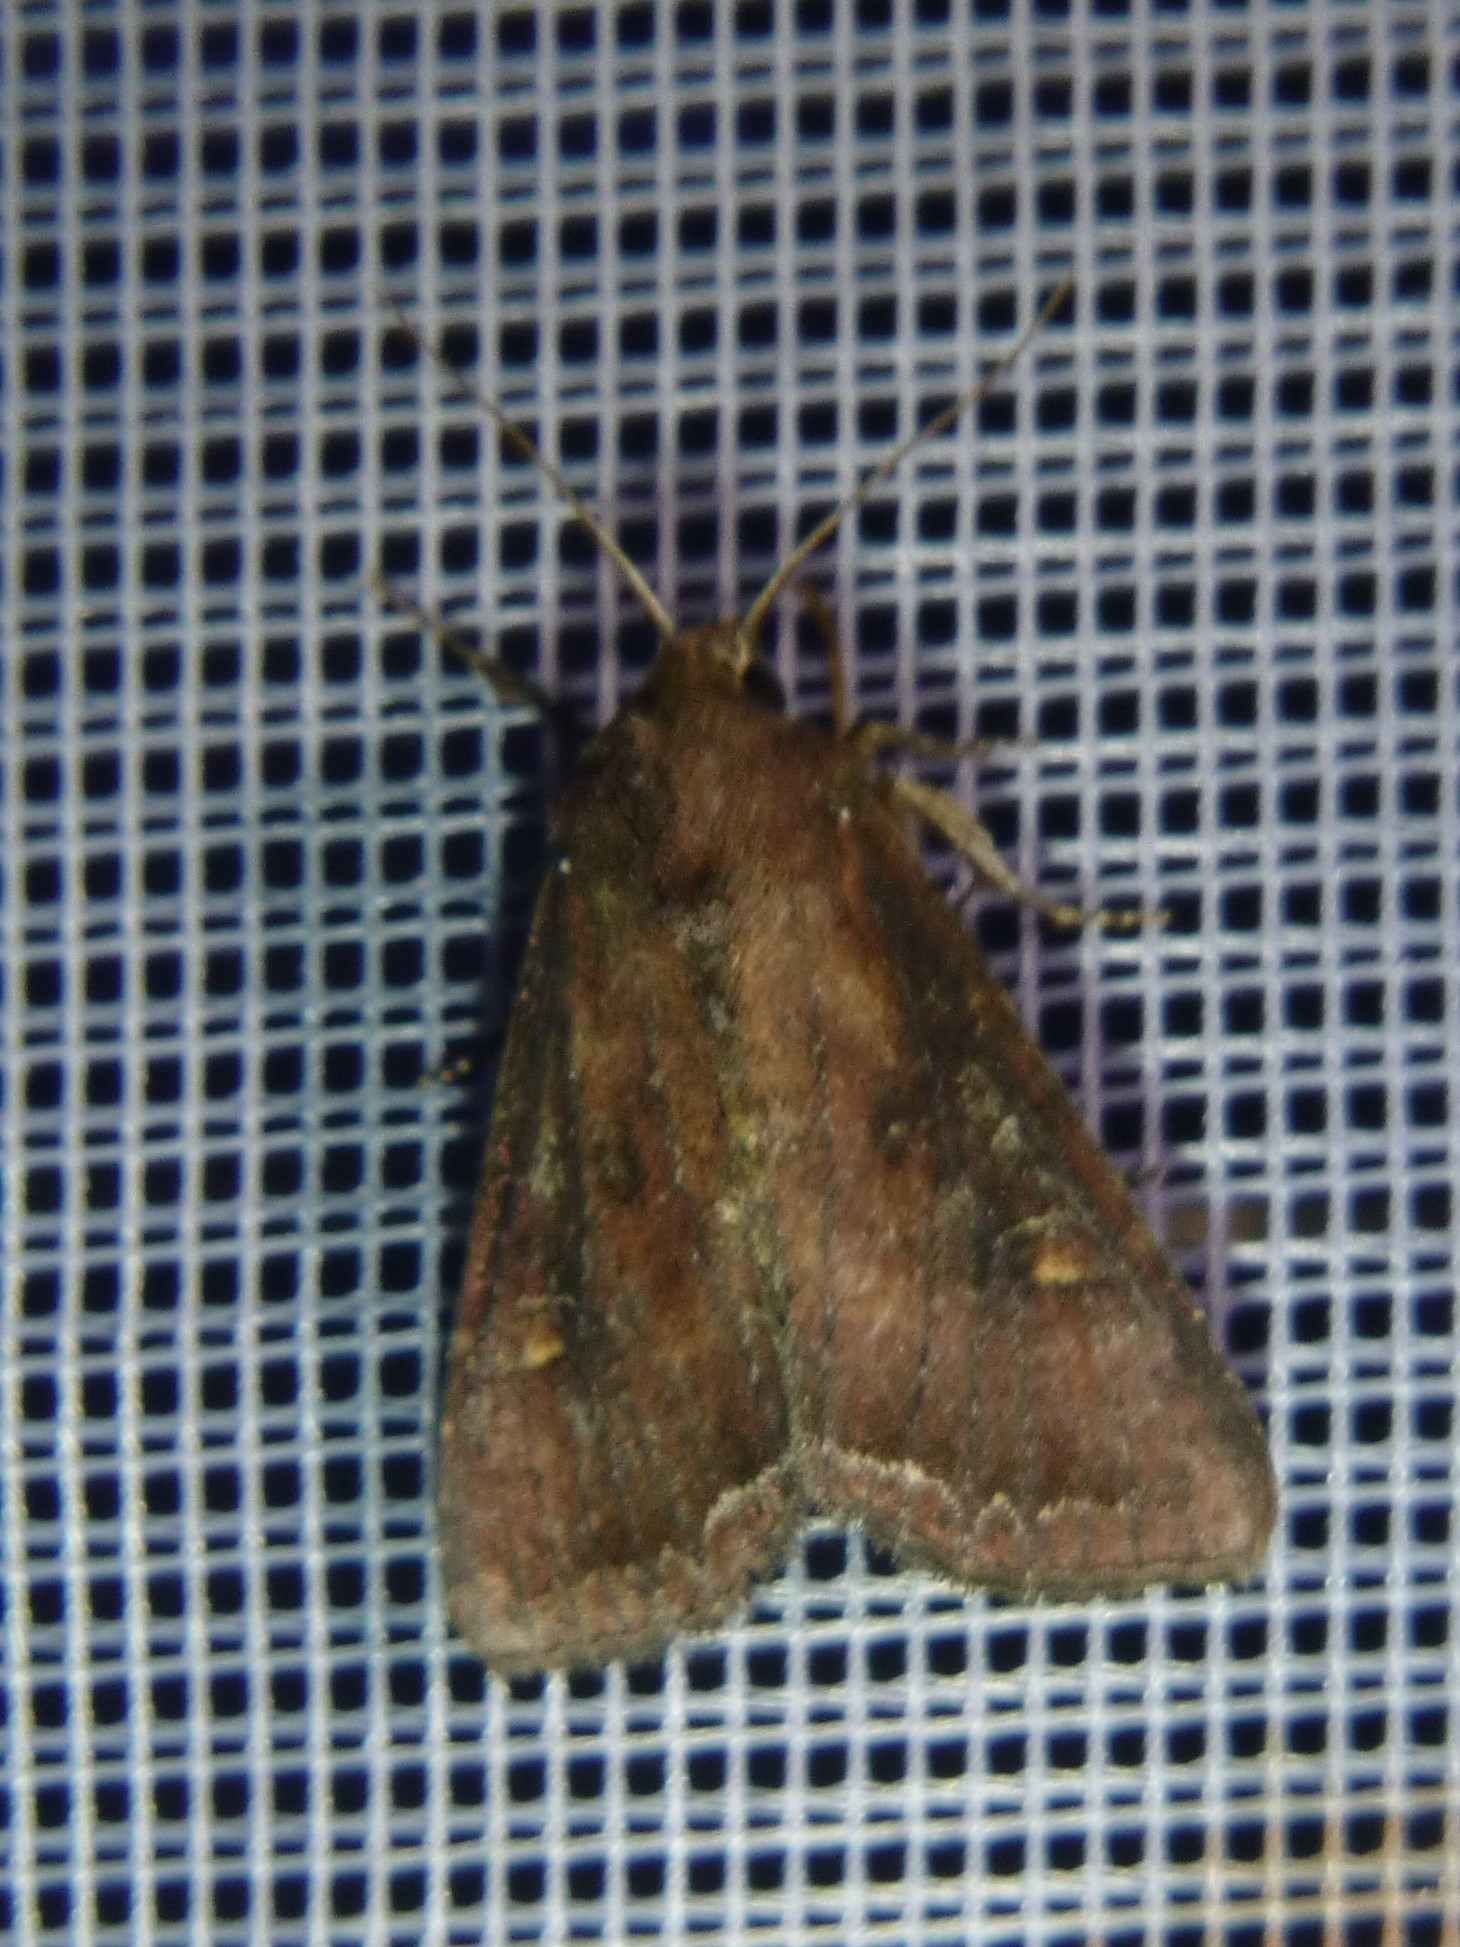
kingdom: Animalia
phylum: Arthropoda
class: Insecta
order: Lepidoptera
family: Noctuidae
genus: Lacanobia
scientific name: Lacanobia oleracea
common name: Bright-line brown-eye
